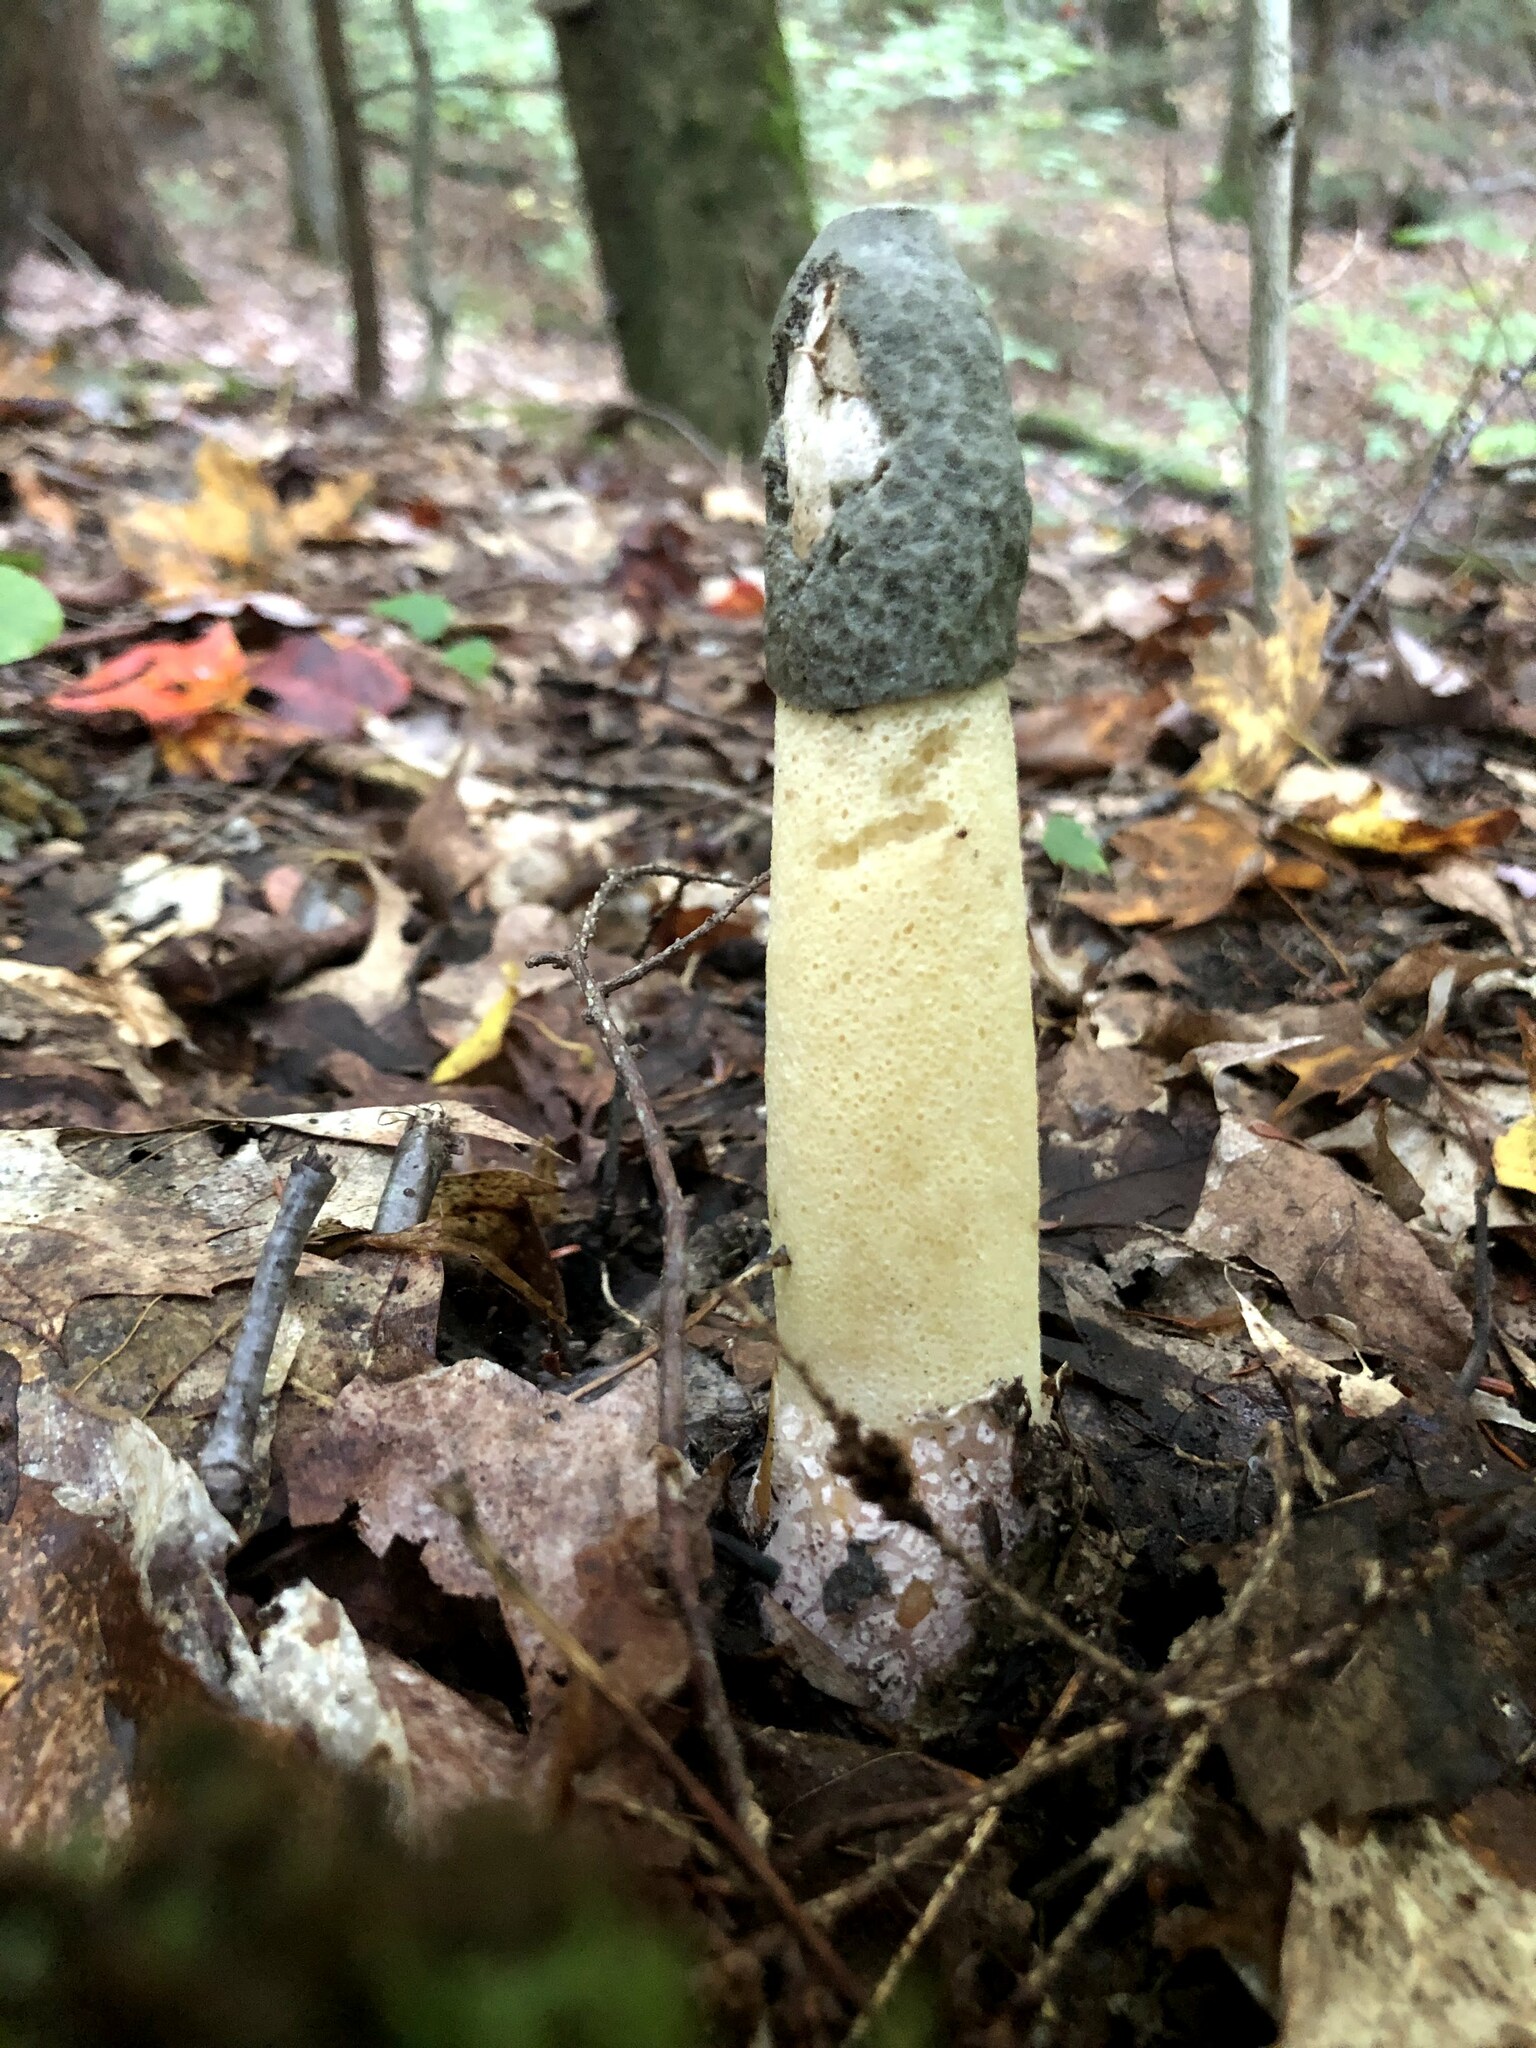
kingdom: Fungi
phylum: Basidiomycota
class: Agaricomycetes
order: Phallales
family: Phallaceae
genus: Phallus
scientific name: Phallus ravenelii
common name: Ravenel's stinkhorn
